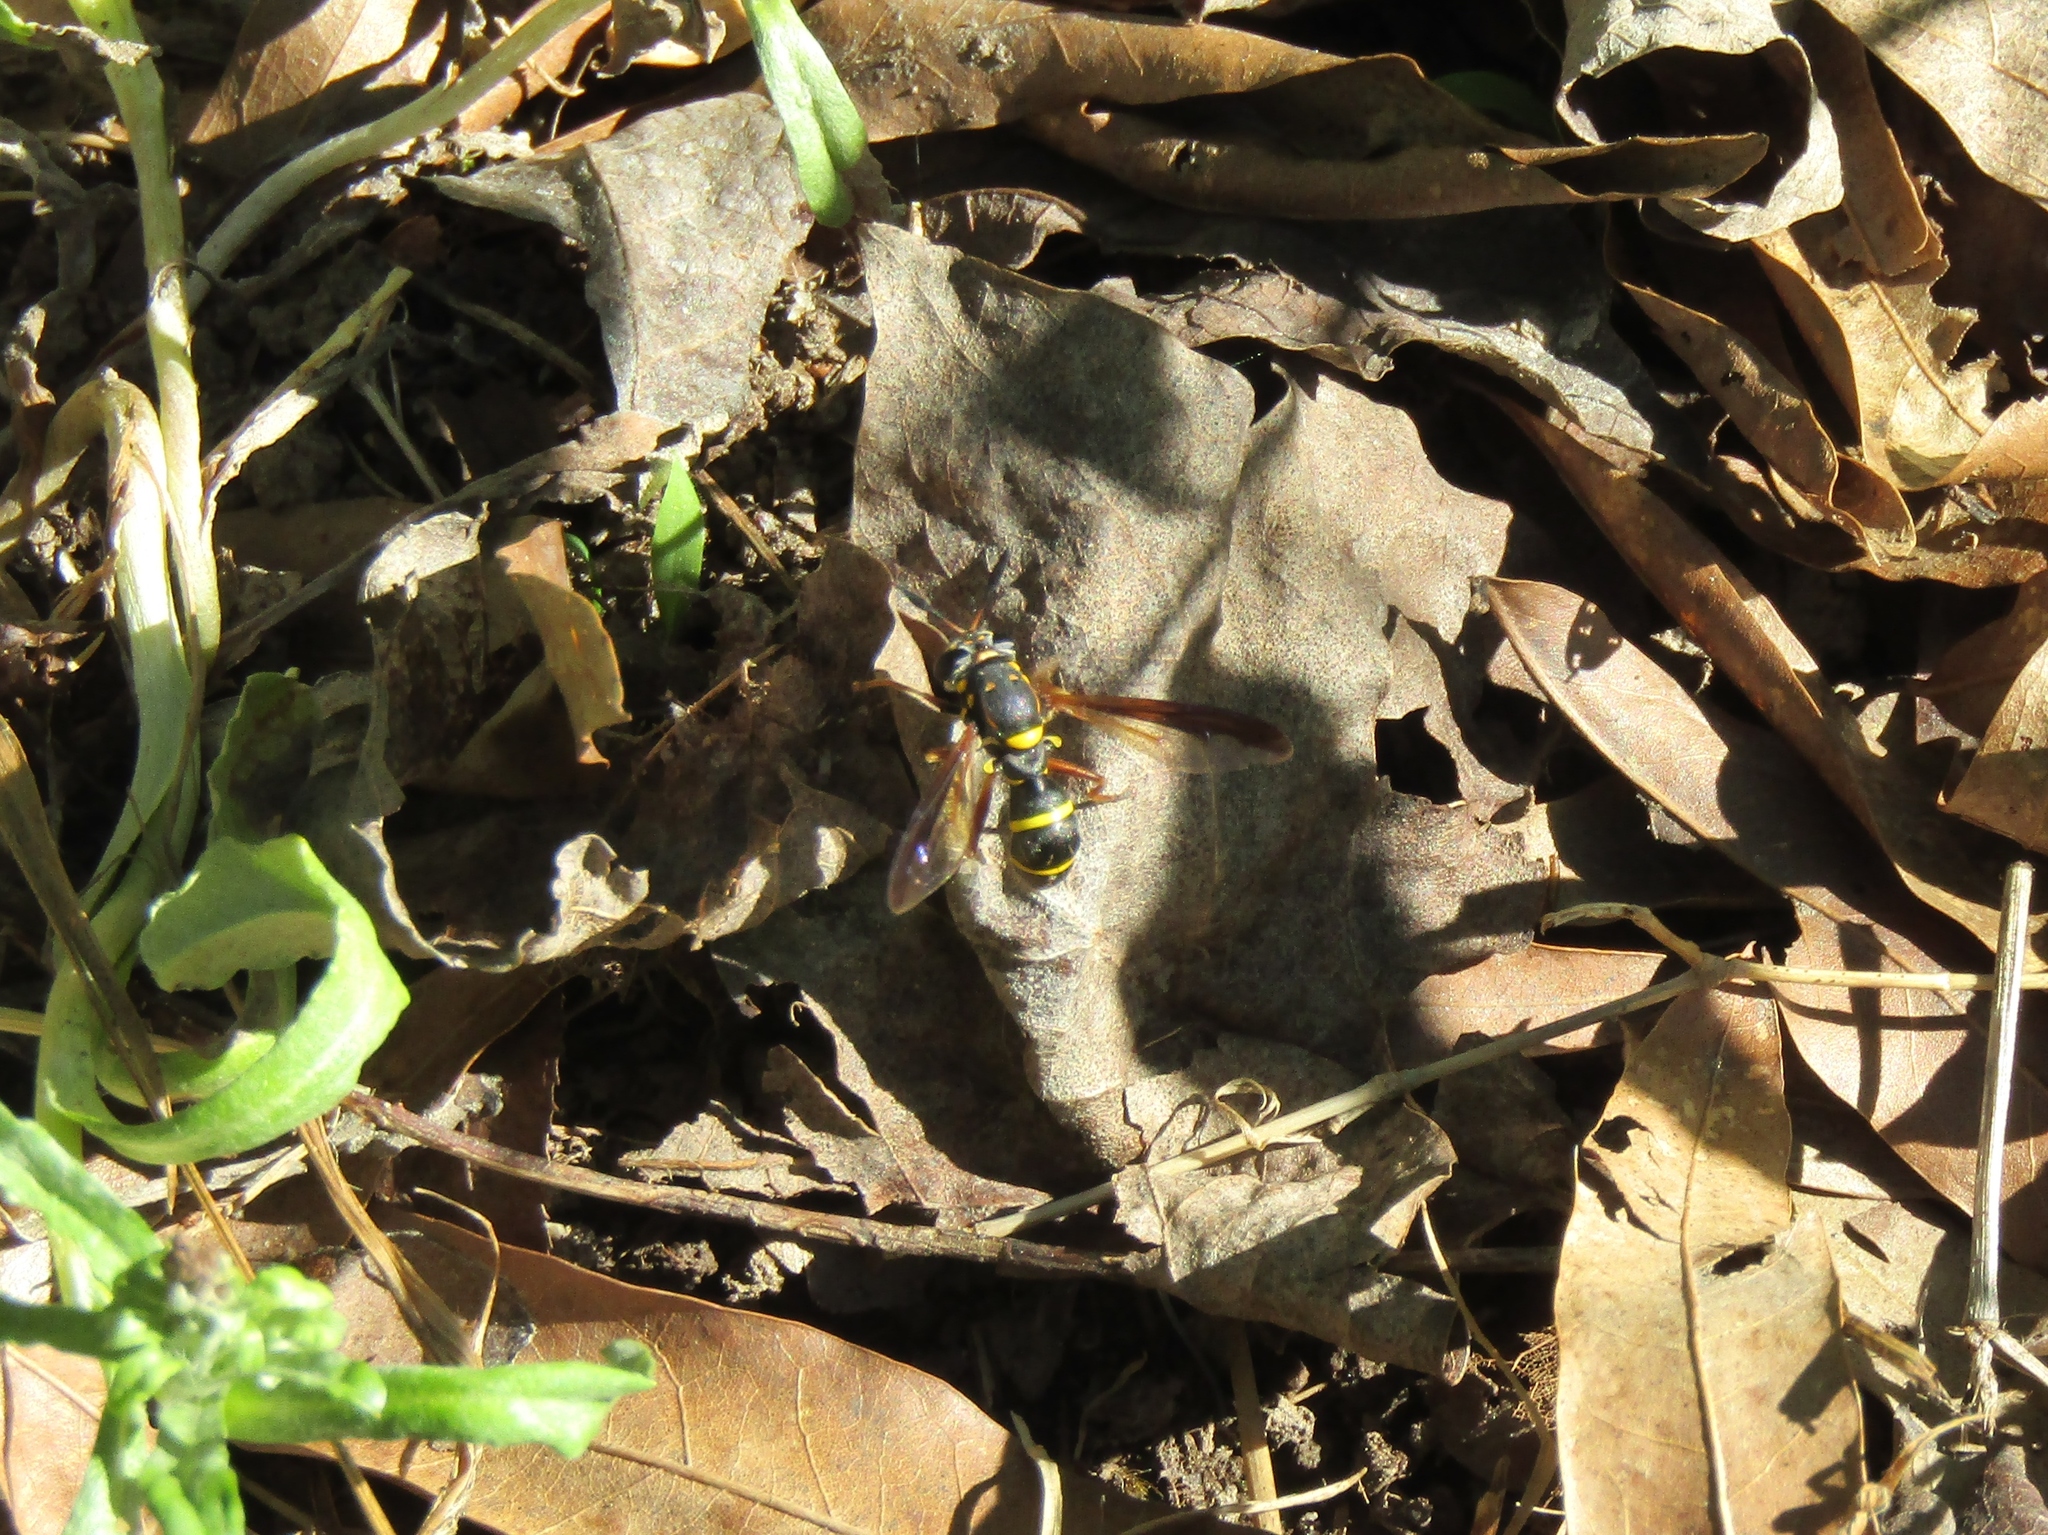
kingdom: Animalia
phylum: Arthropoda
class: Insecta
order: Diptera
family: Syrphidae
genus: Sphiximorpha
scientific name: Sphiximorpha willistoni
